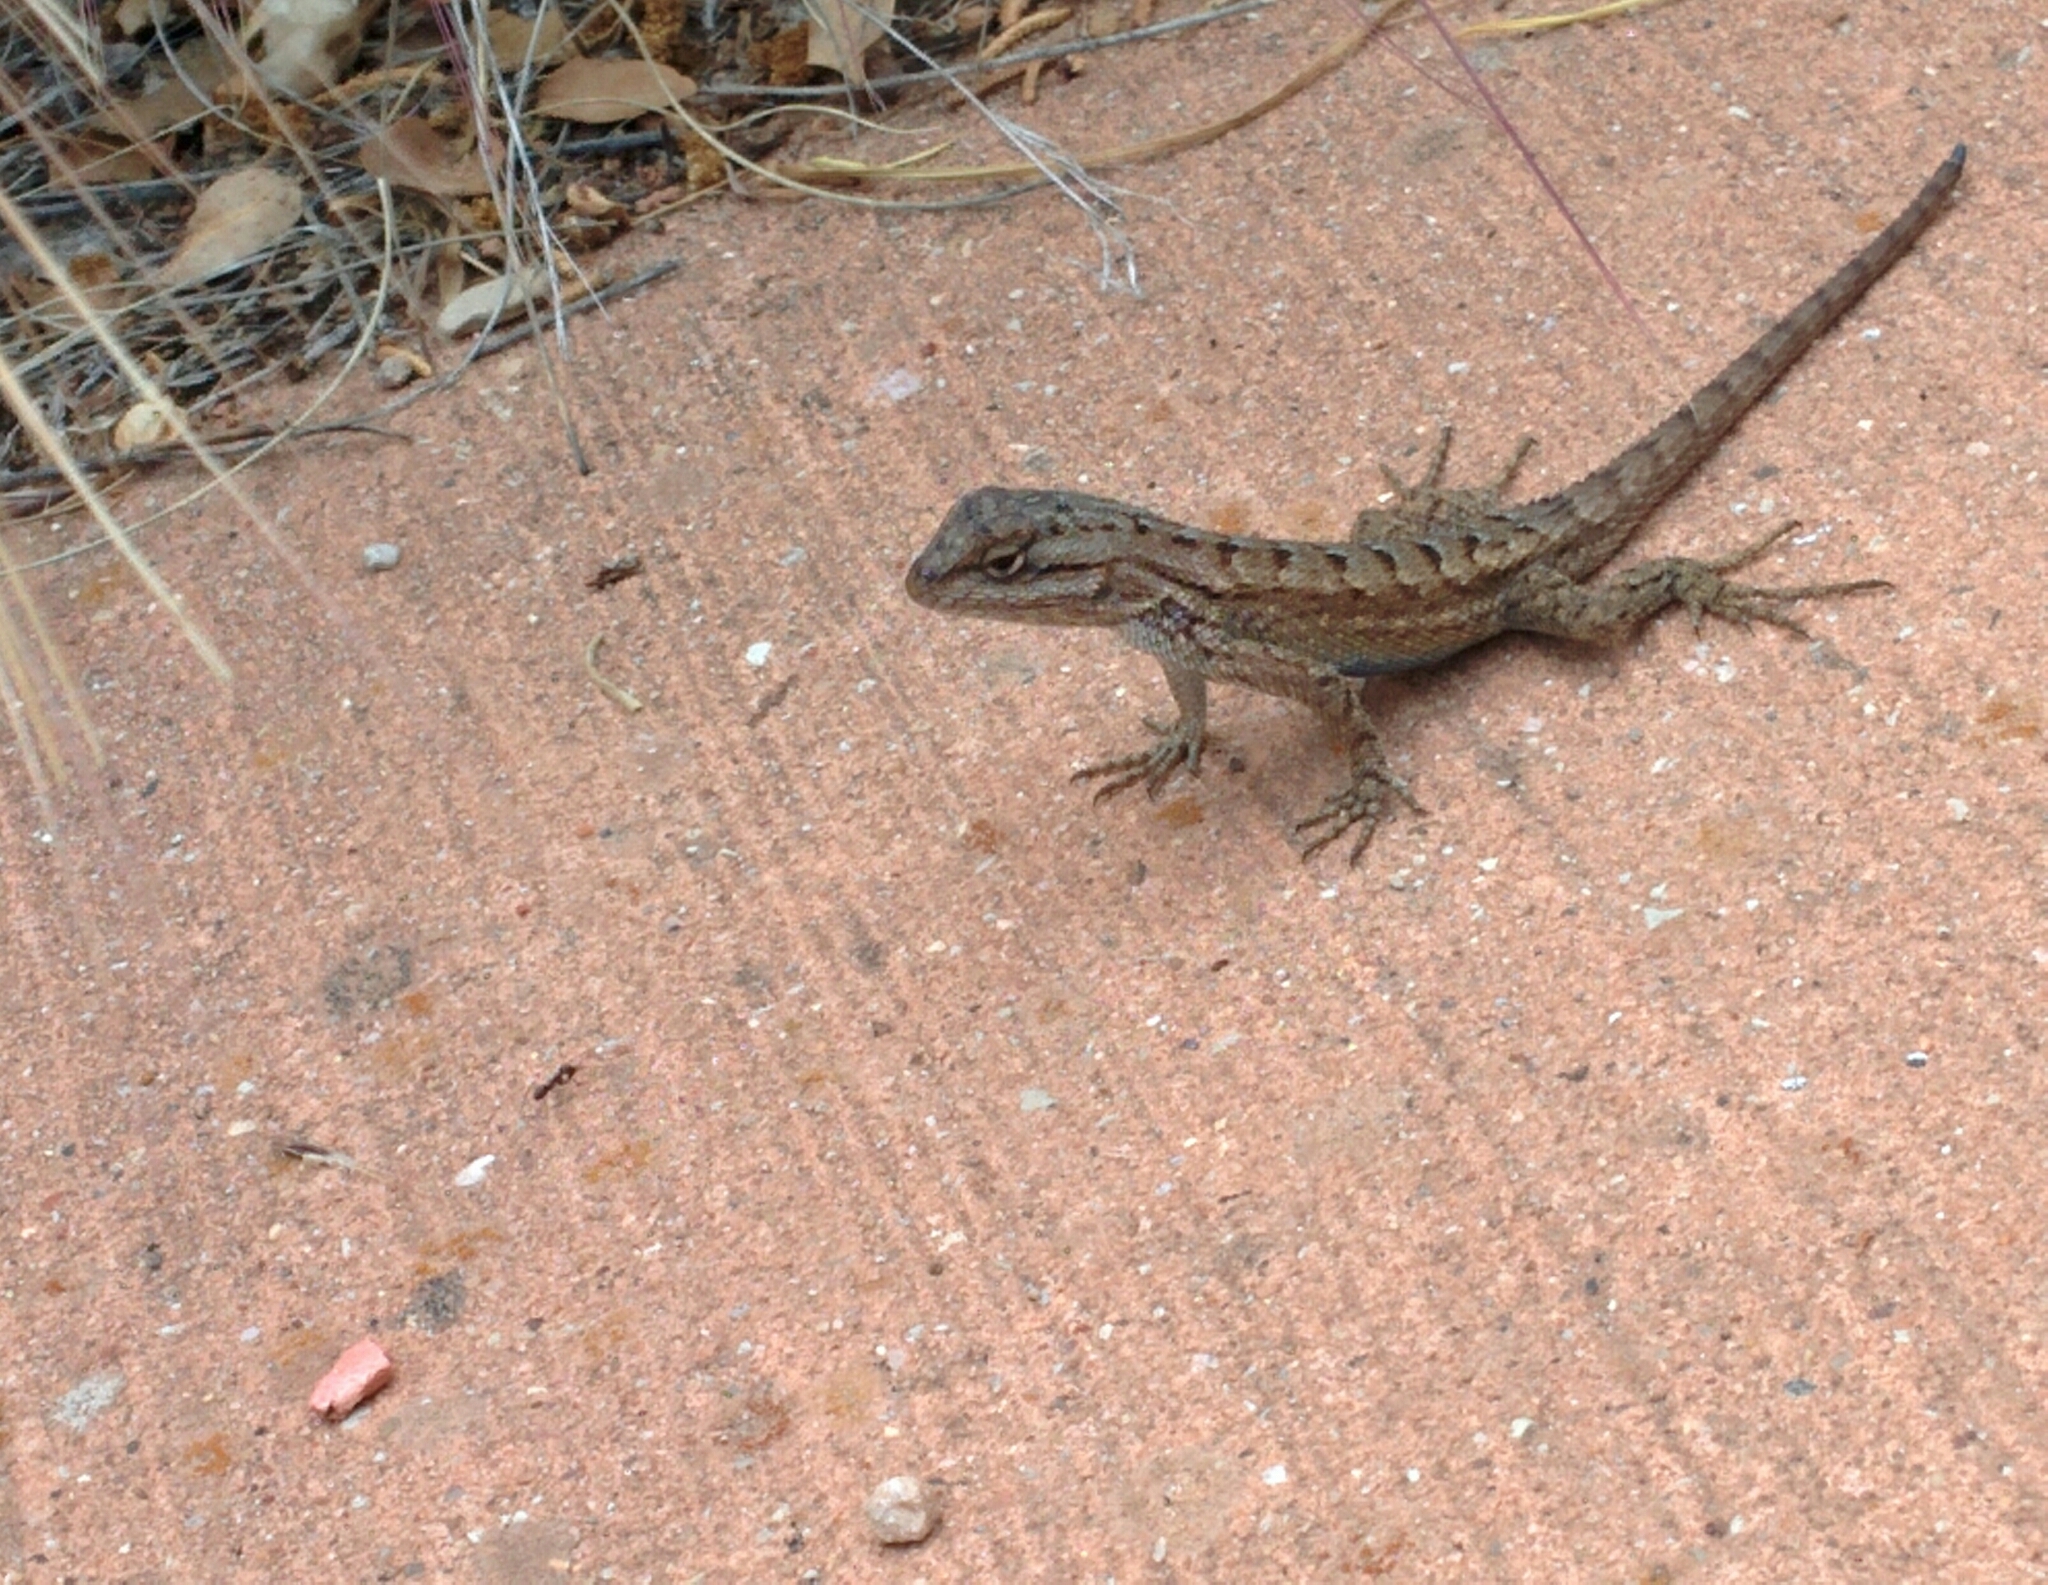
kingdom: Animalia
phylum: Chordata
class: Squamata
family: Phrynosomatidae
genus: Sceloporus
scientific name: Sceloporus tristichus
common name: Plateau fence lizard
